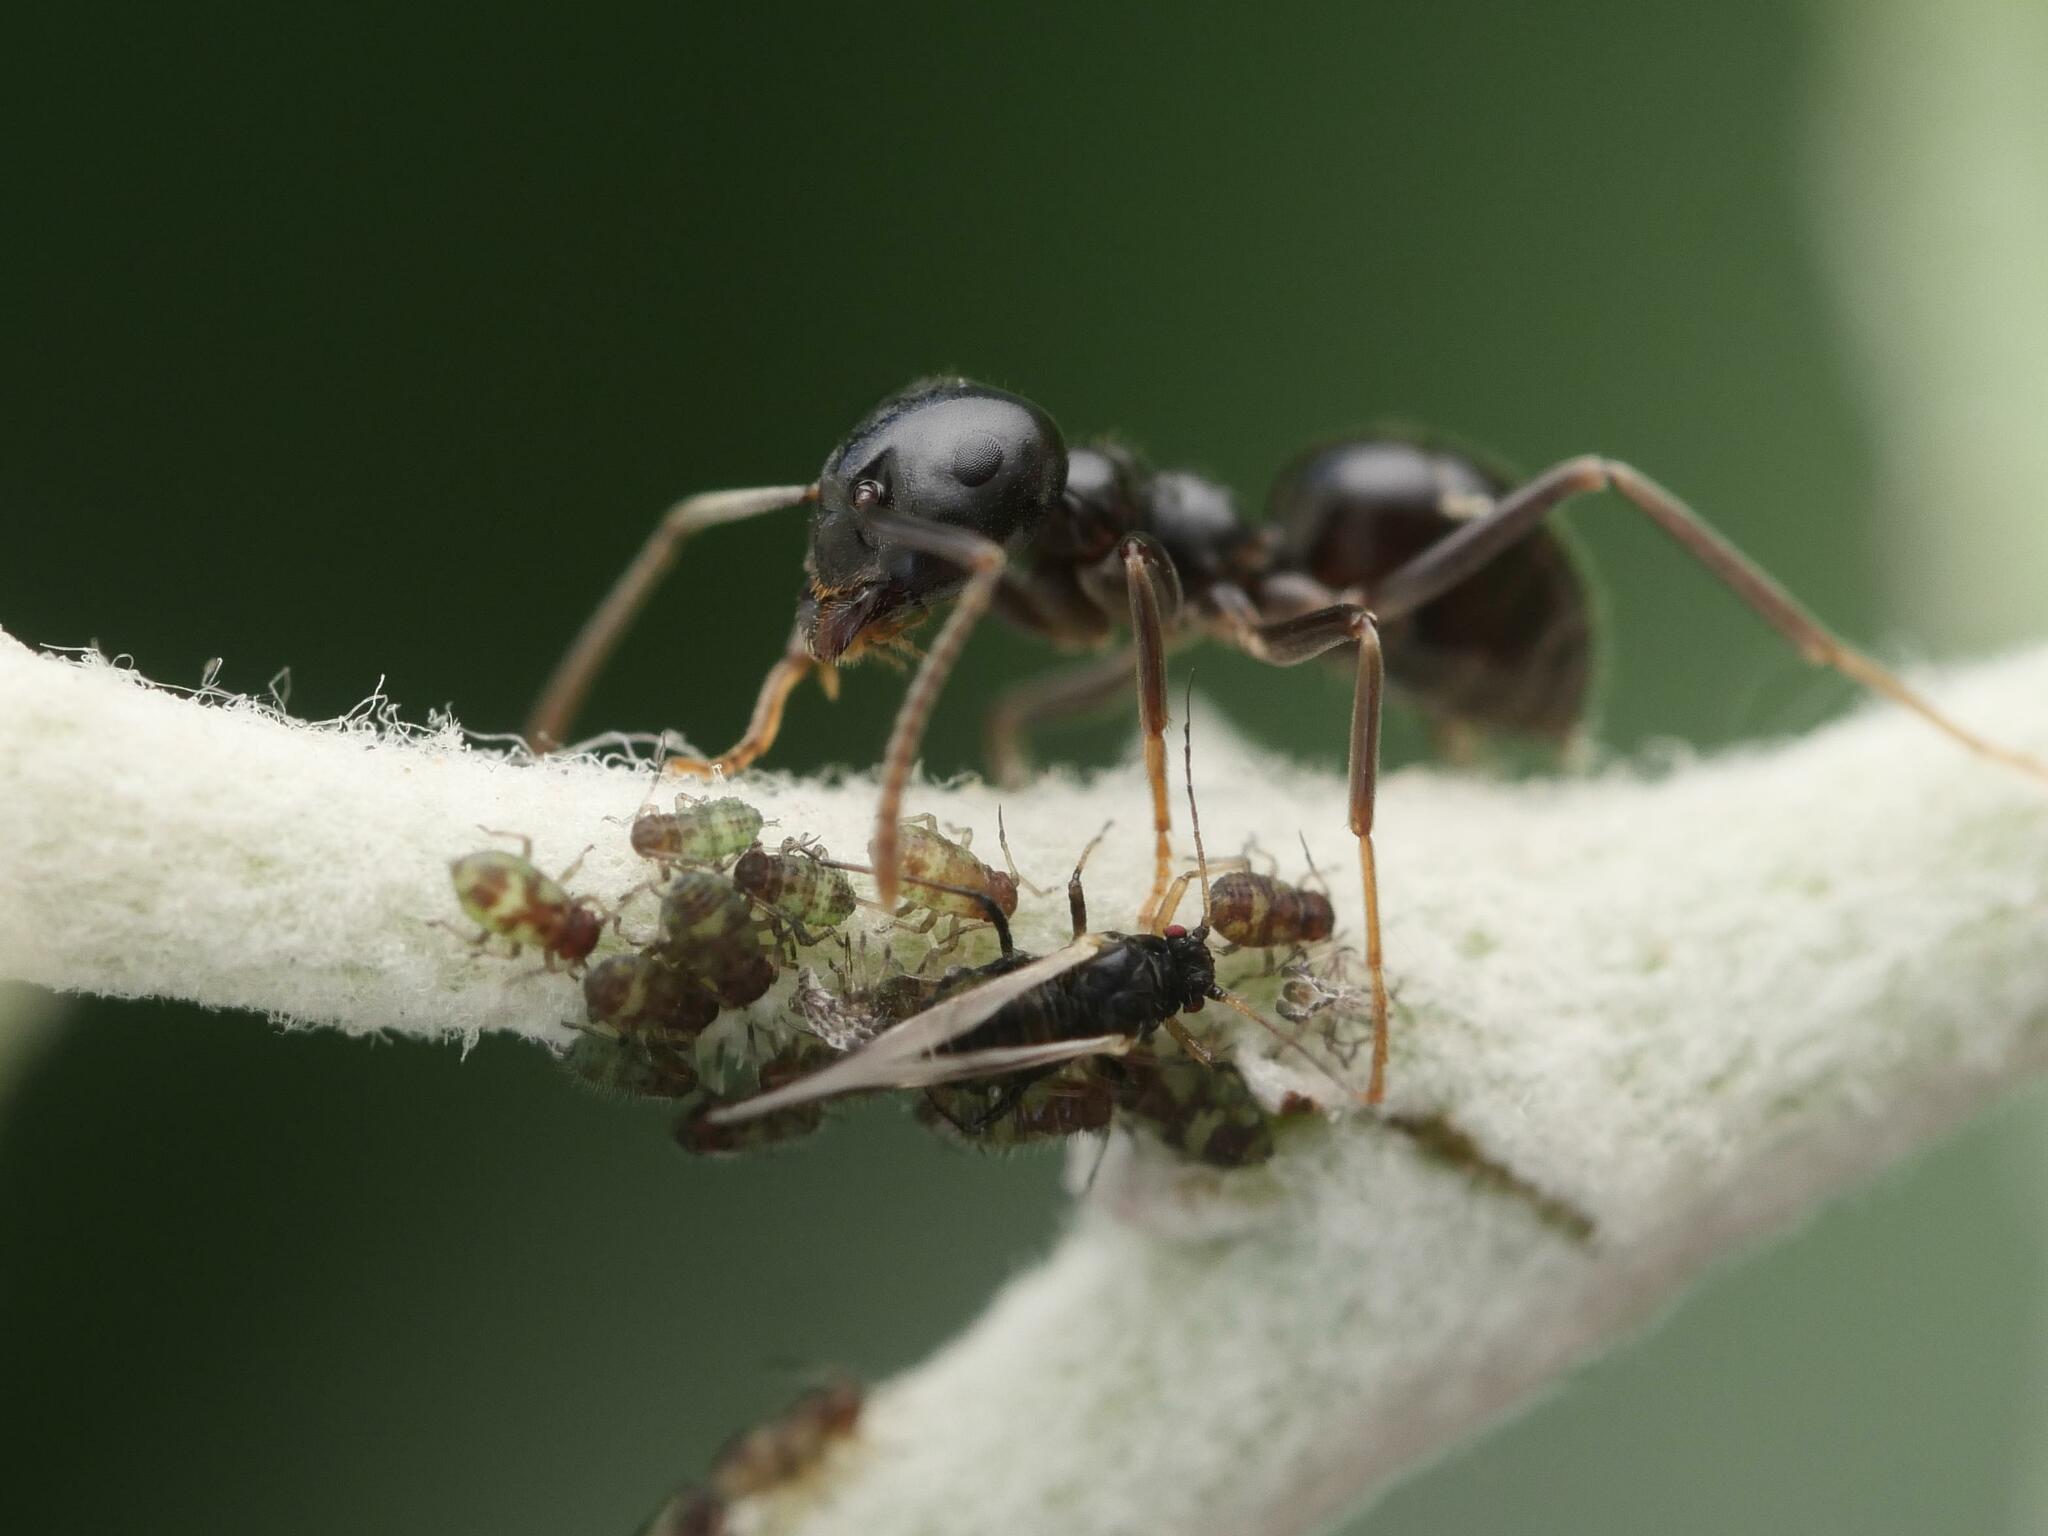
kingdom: Animalia
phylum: Arthropoda
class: Insecta
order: Hymenoptera
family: Formicidae
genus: Lasius
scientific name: Lasius fuliginosus
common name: Jet ant
